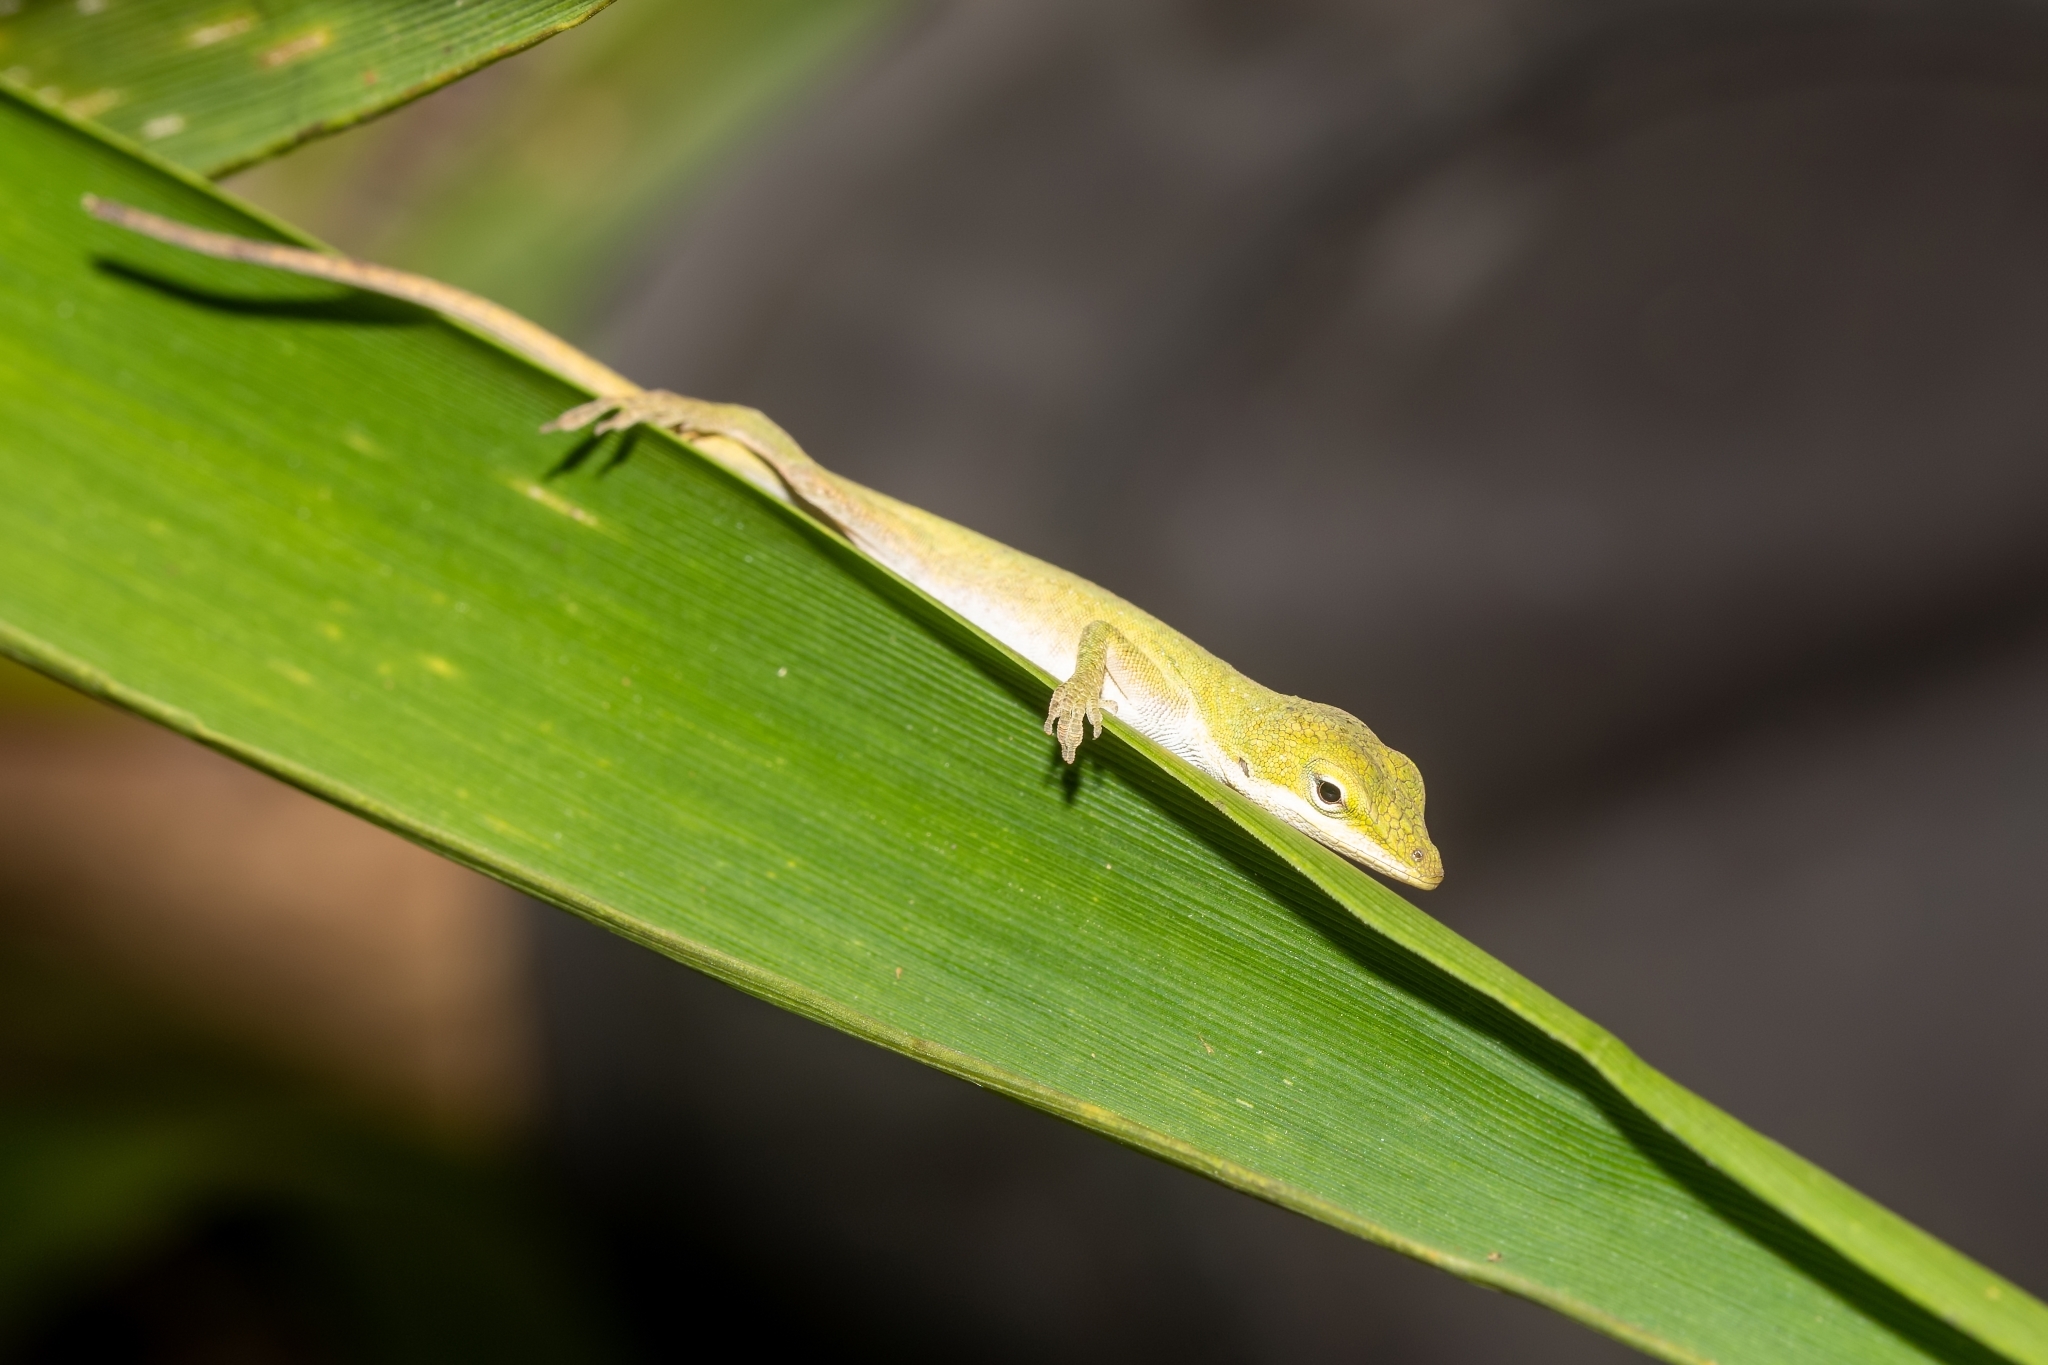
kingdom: Animalia
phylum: Chordata
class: Squamata
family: Dactyloidae
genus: Anolis
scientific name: Anolis carolinensis
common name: Green anole
